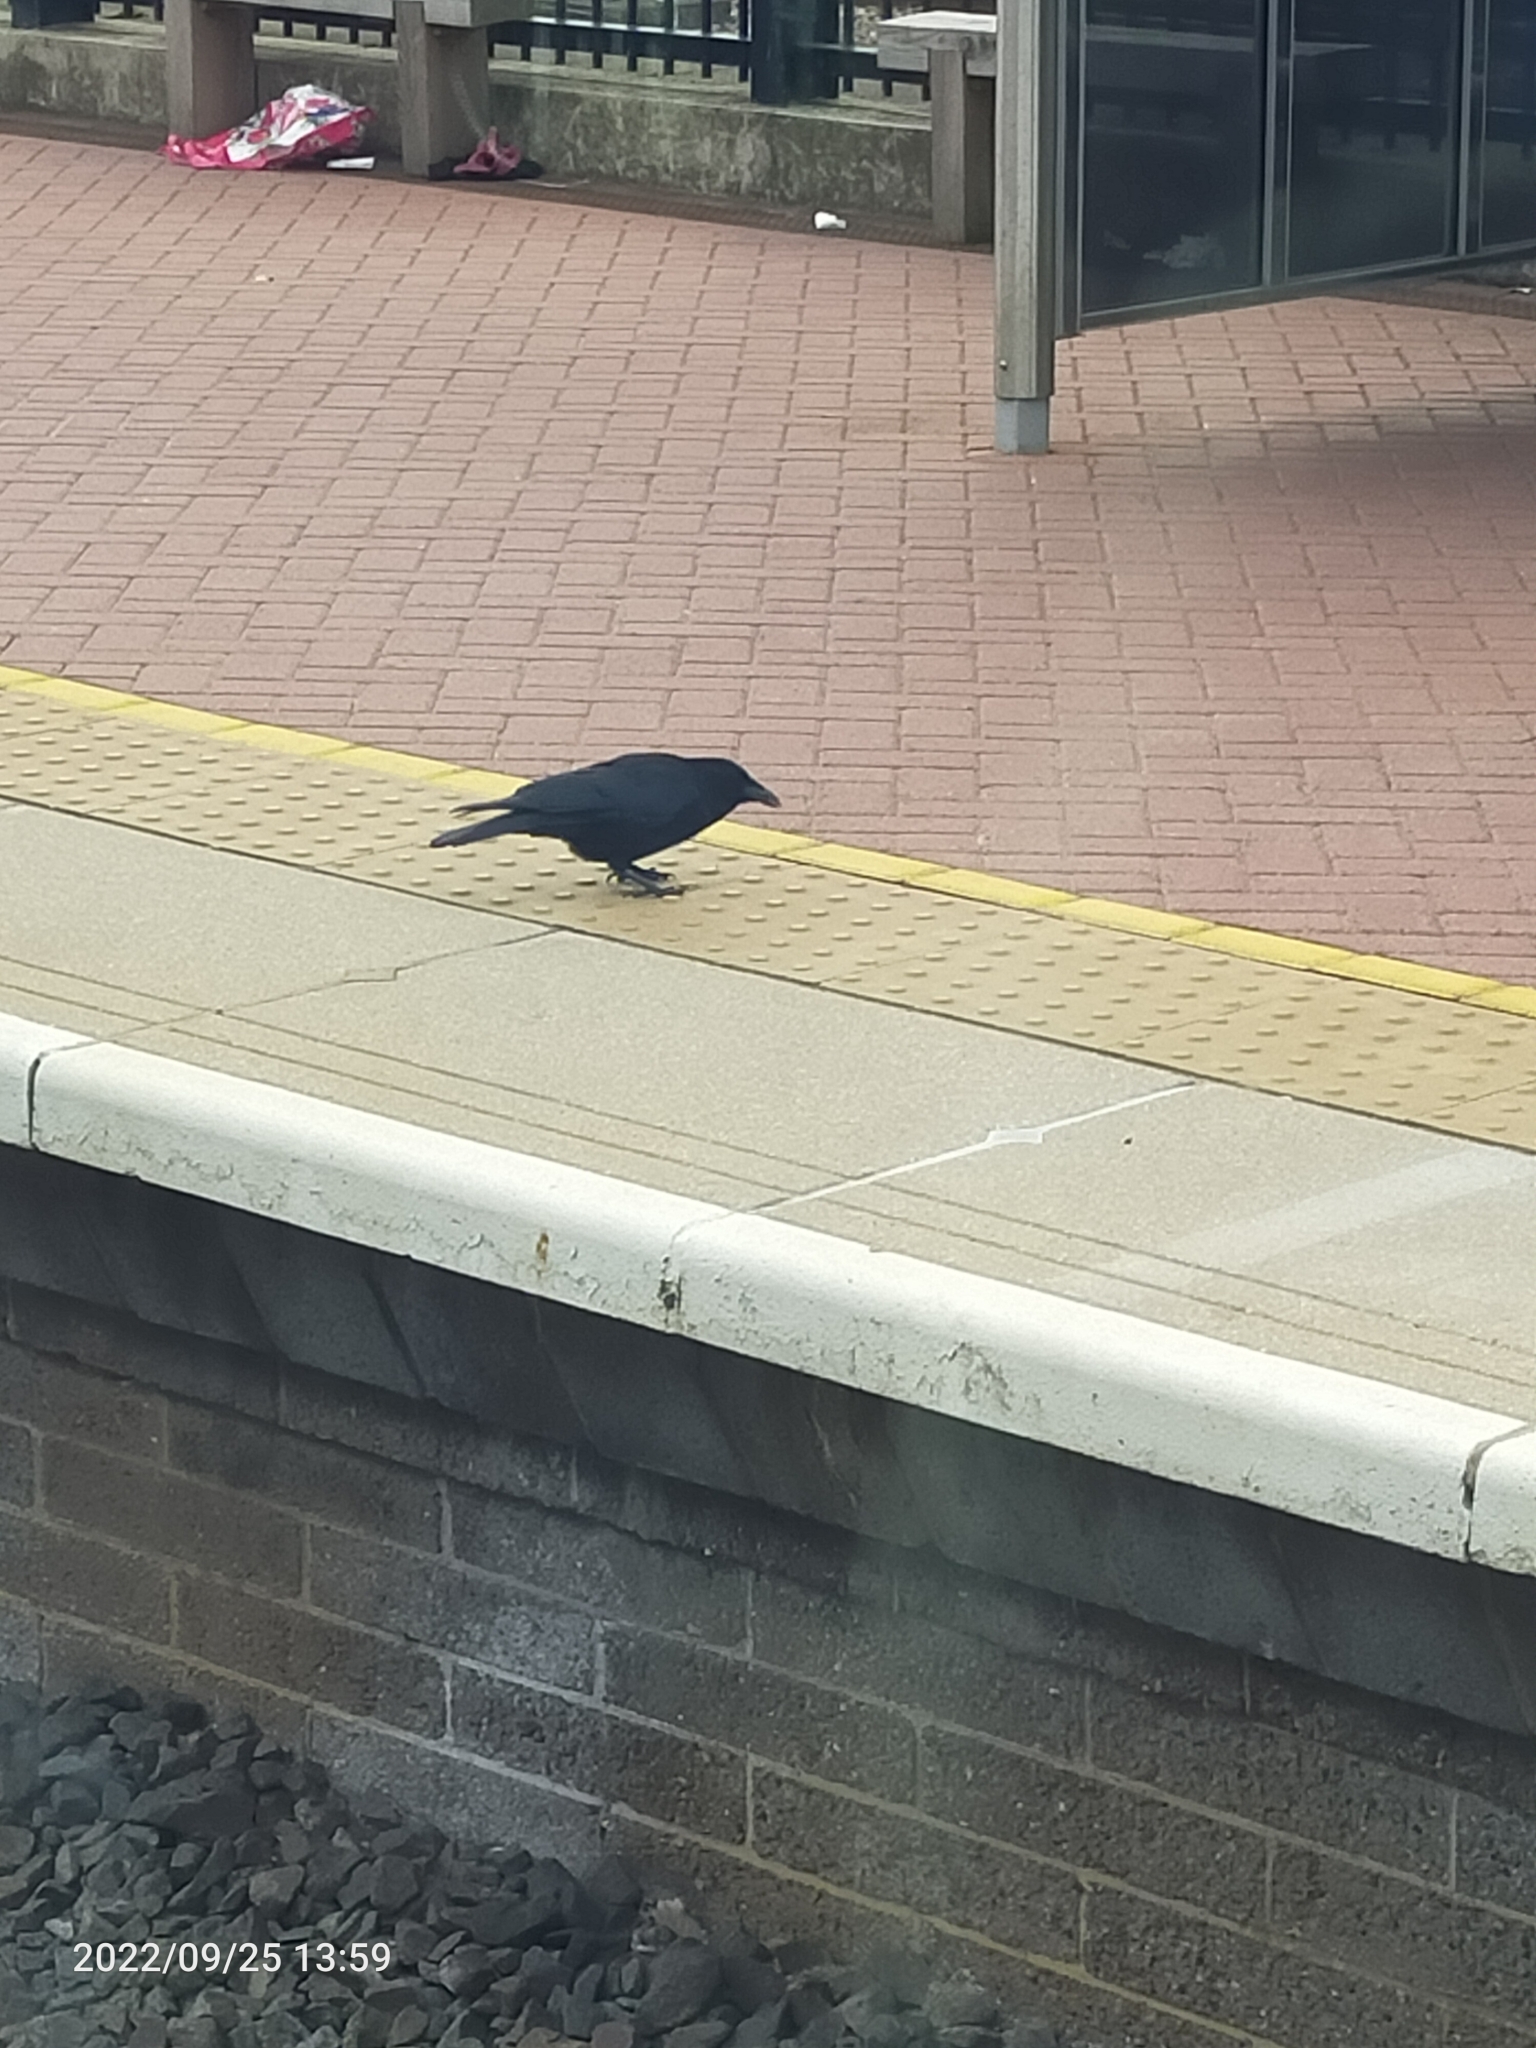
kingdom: Animalia
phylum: Chordata
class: Aves
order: Passeriformes
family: Corvidae
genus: Corvus
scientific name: Corvus corone
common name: Carrion crow
